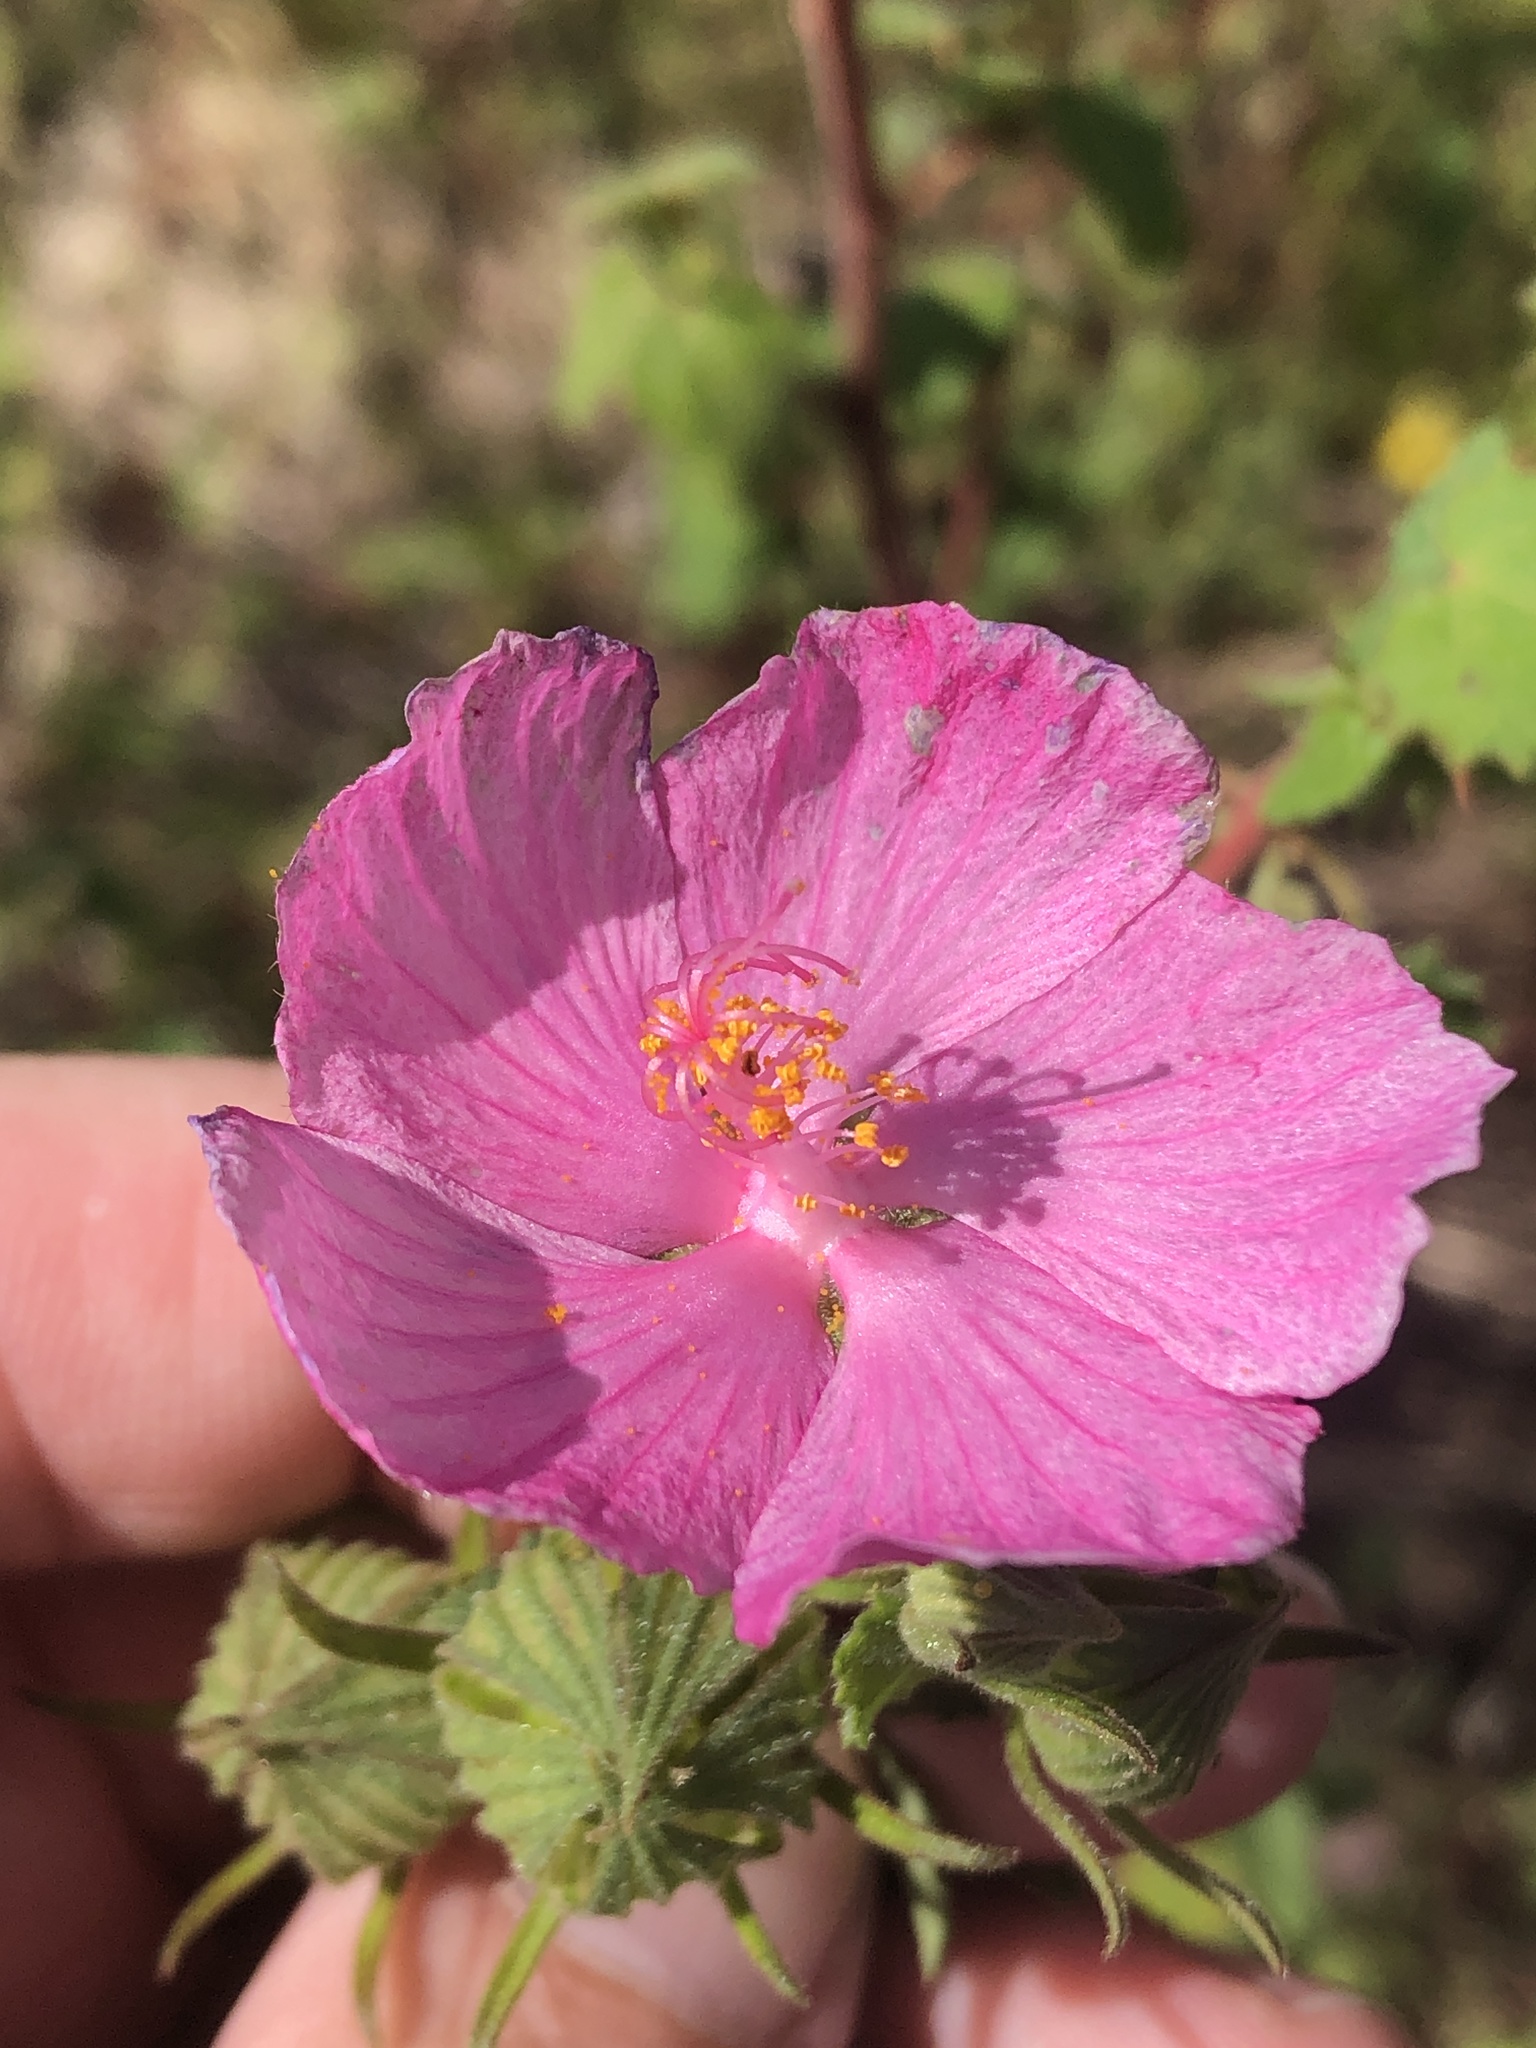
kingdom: Plantae
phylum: Tracheophyta
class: Magnoliopsida
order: Malvales
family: Malvaceae
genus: Pavonia
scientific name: Pavonia lasiopetala
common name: Texas swamp-mallow
